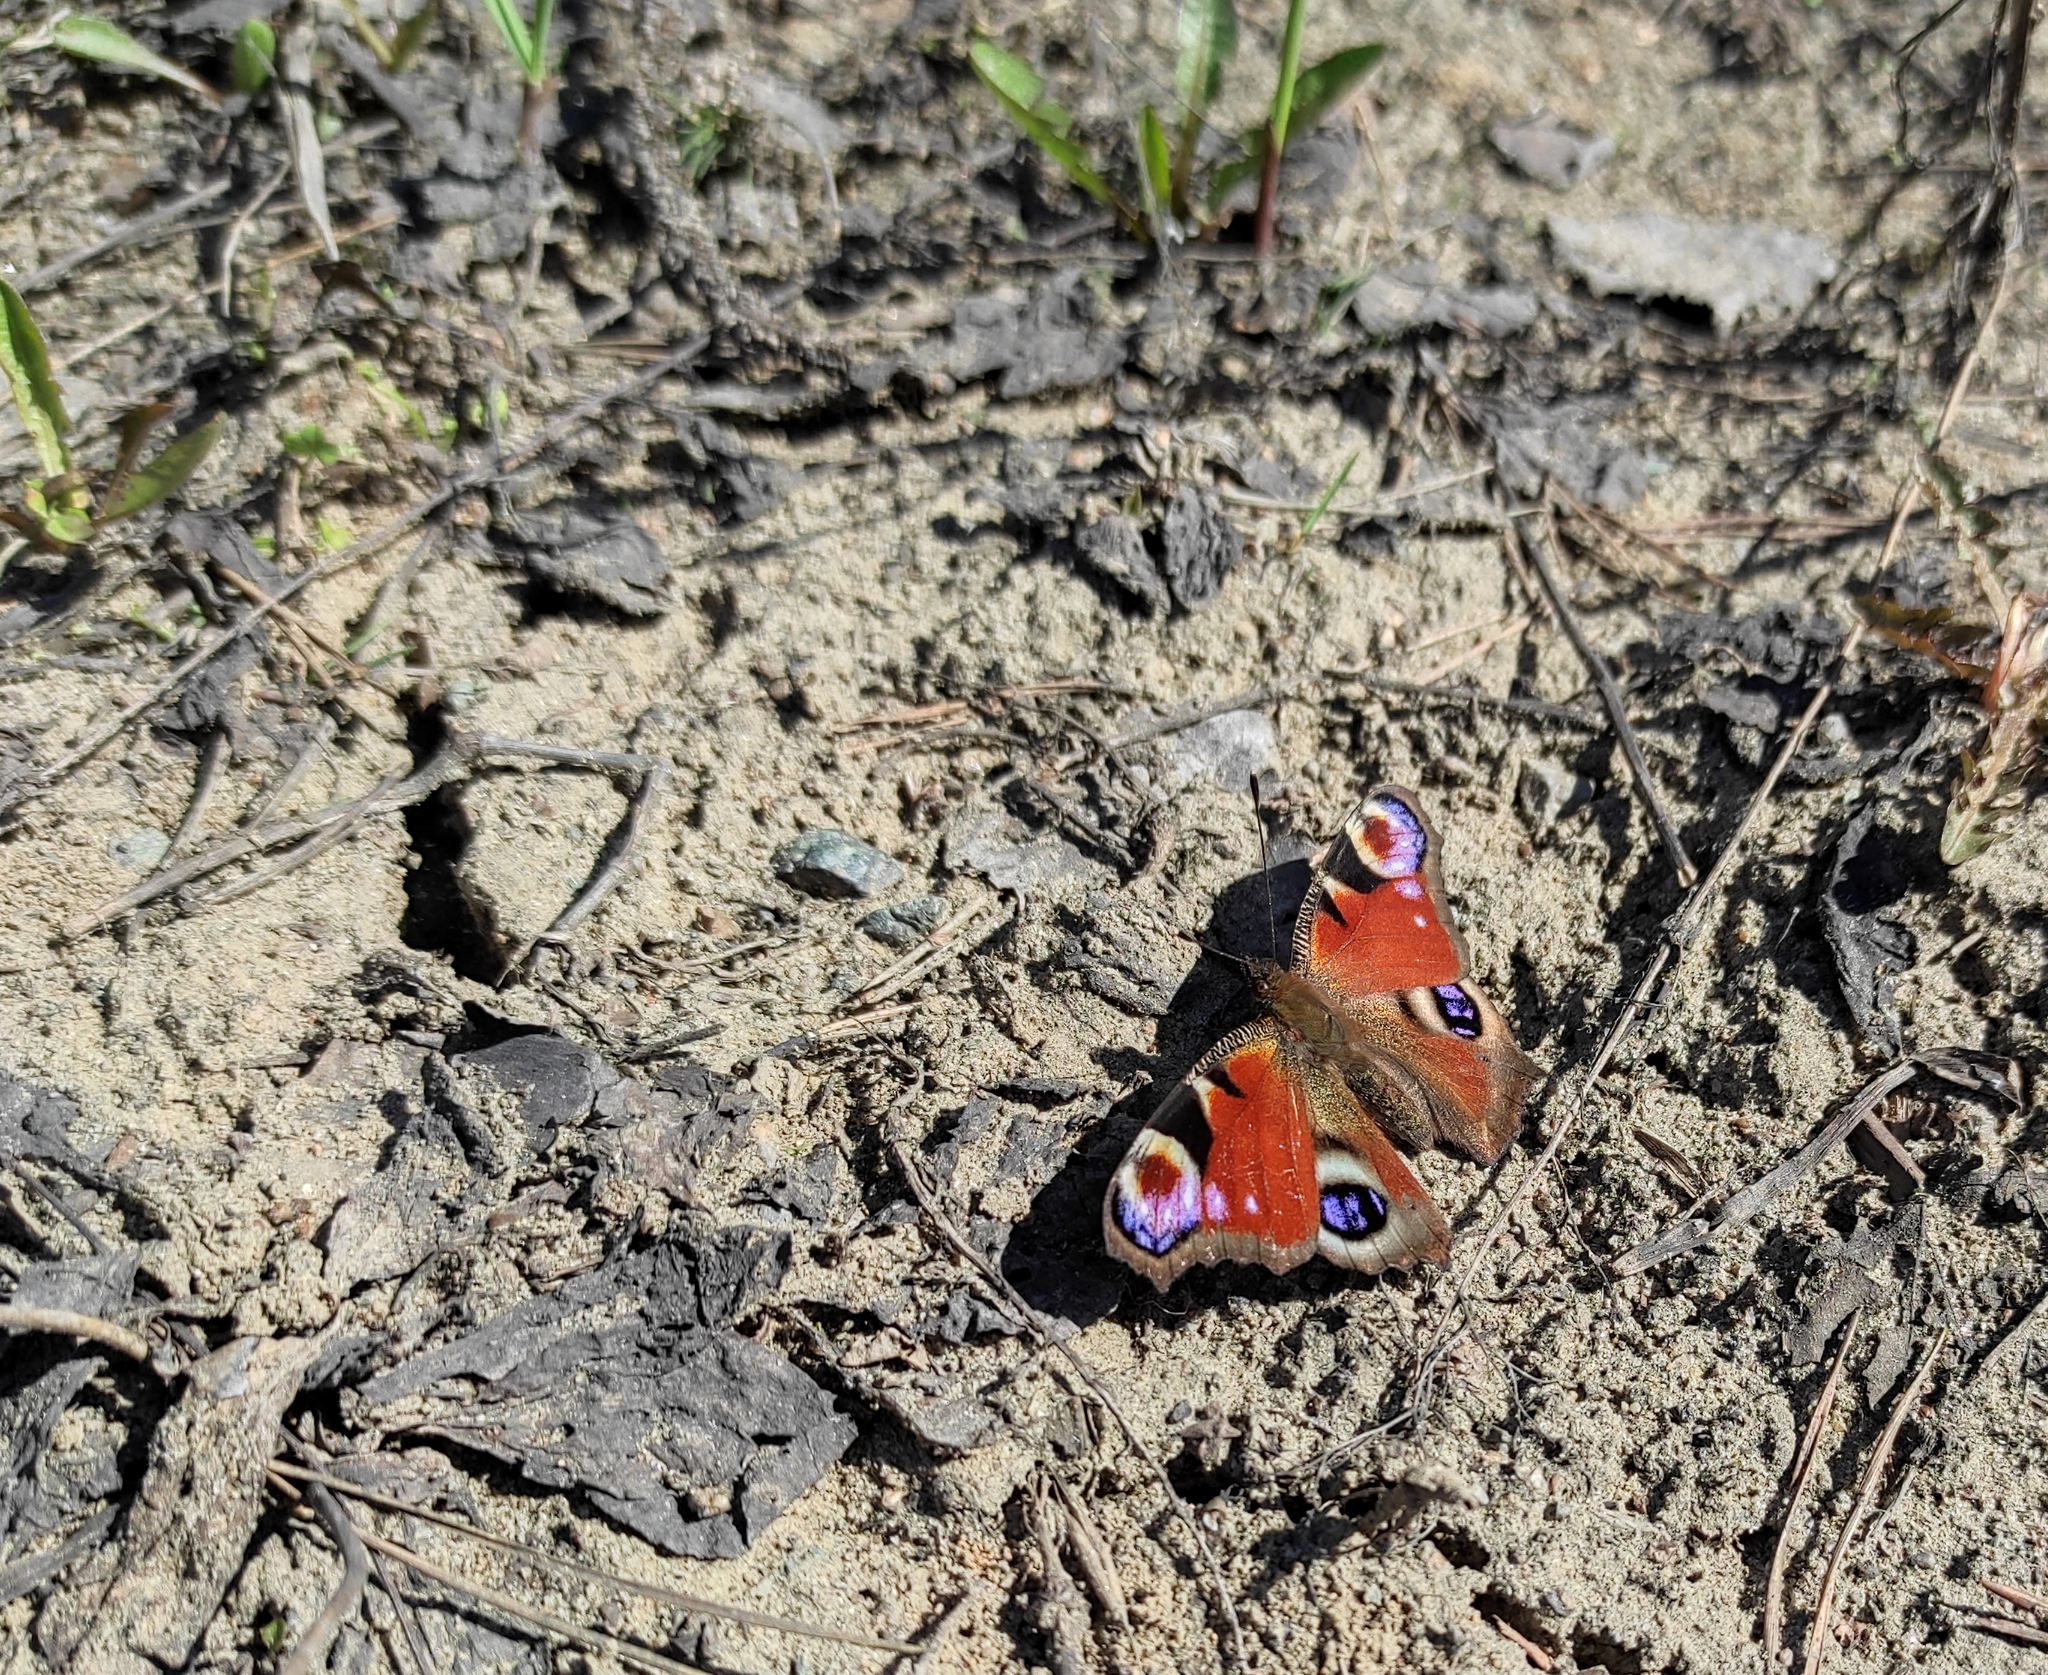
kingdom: Animalia
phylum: Arthropoda
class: Insecta
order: Lepidoptera
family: Nymphalidae
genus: Aglais
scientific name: Aglais io
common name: Peacock
